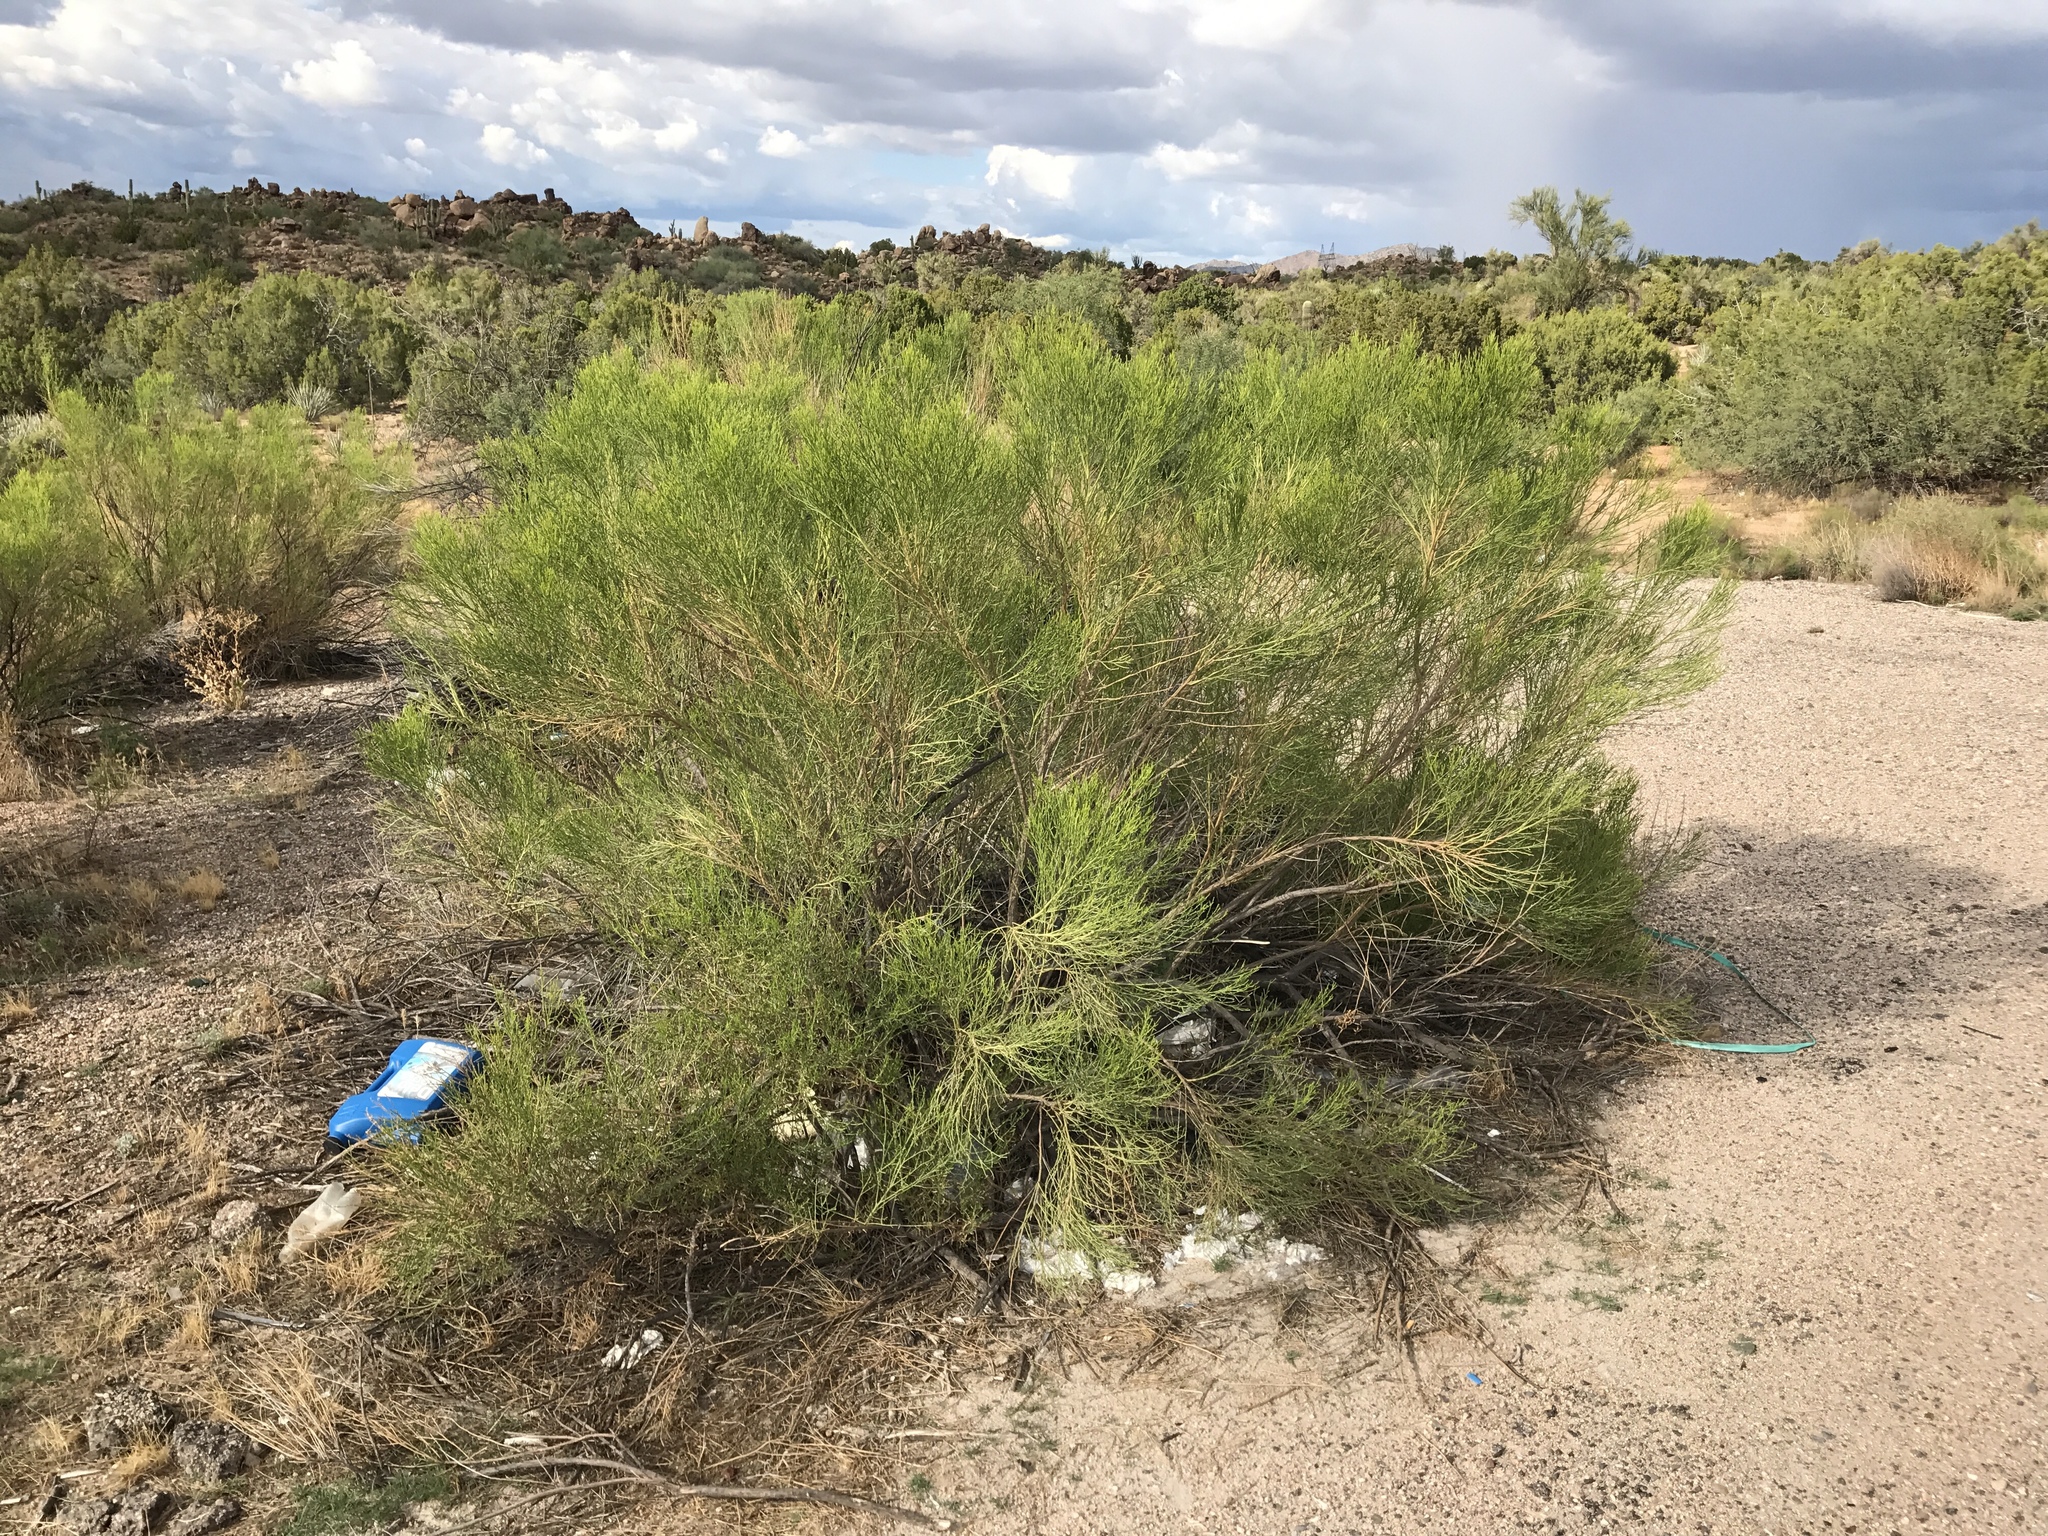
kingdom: Plantae
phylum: Tracheophyta
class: Magnoliopsida
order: Asterales
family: Asteraceae
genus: Baccharis
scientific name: Baccharis sarothroides
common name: Desert-broom
